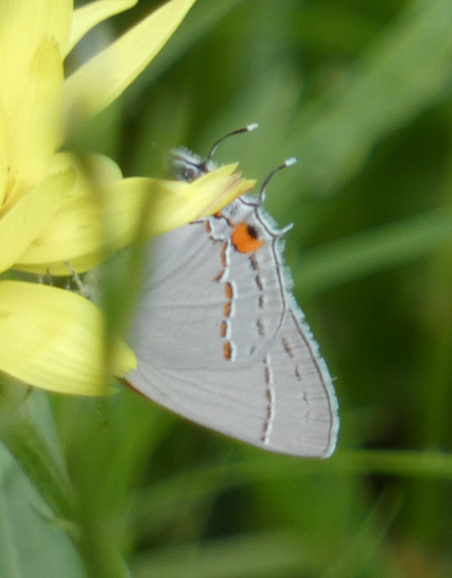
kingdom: Animalia
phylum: Arthropoda
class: Insecta
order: Lepidoptera
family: Lycaenidae
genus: Strymon
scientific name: Strymon melinus
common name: Gray hairstreak
